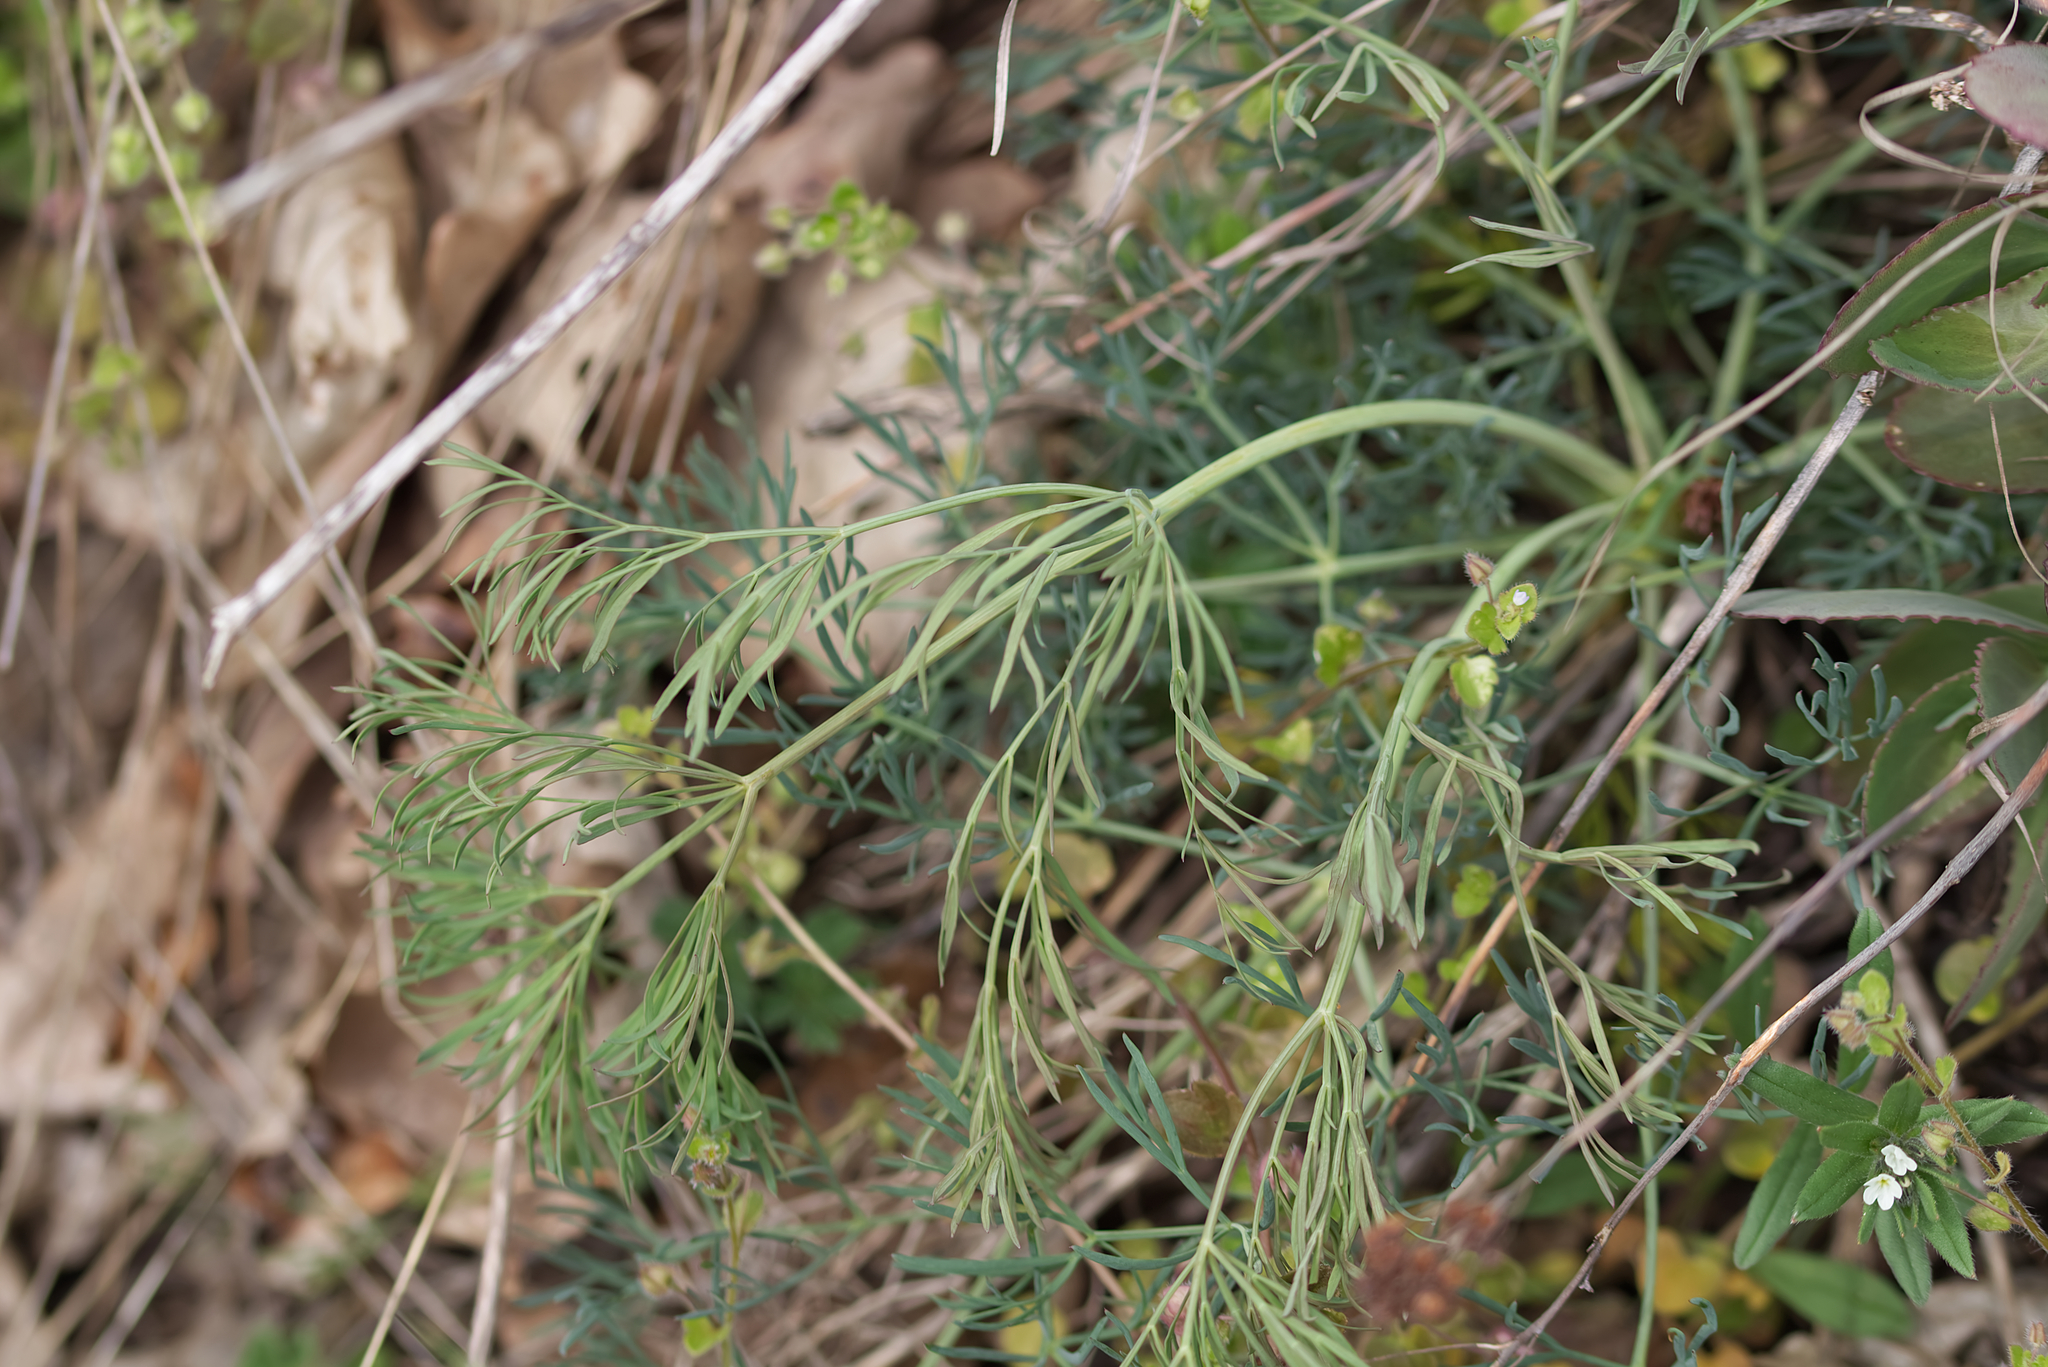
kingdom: Plantae
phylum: Tracheophyta
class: Magnoliopsida
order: Apiales
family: Apiaceae
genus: Seseli
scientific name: Seseli osseum
